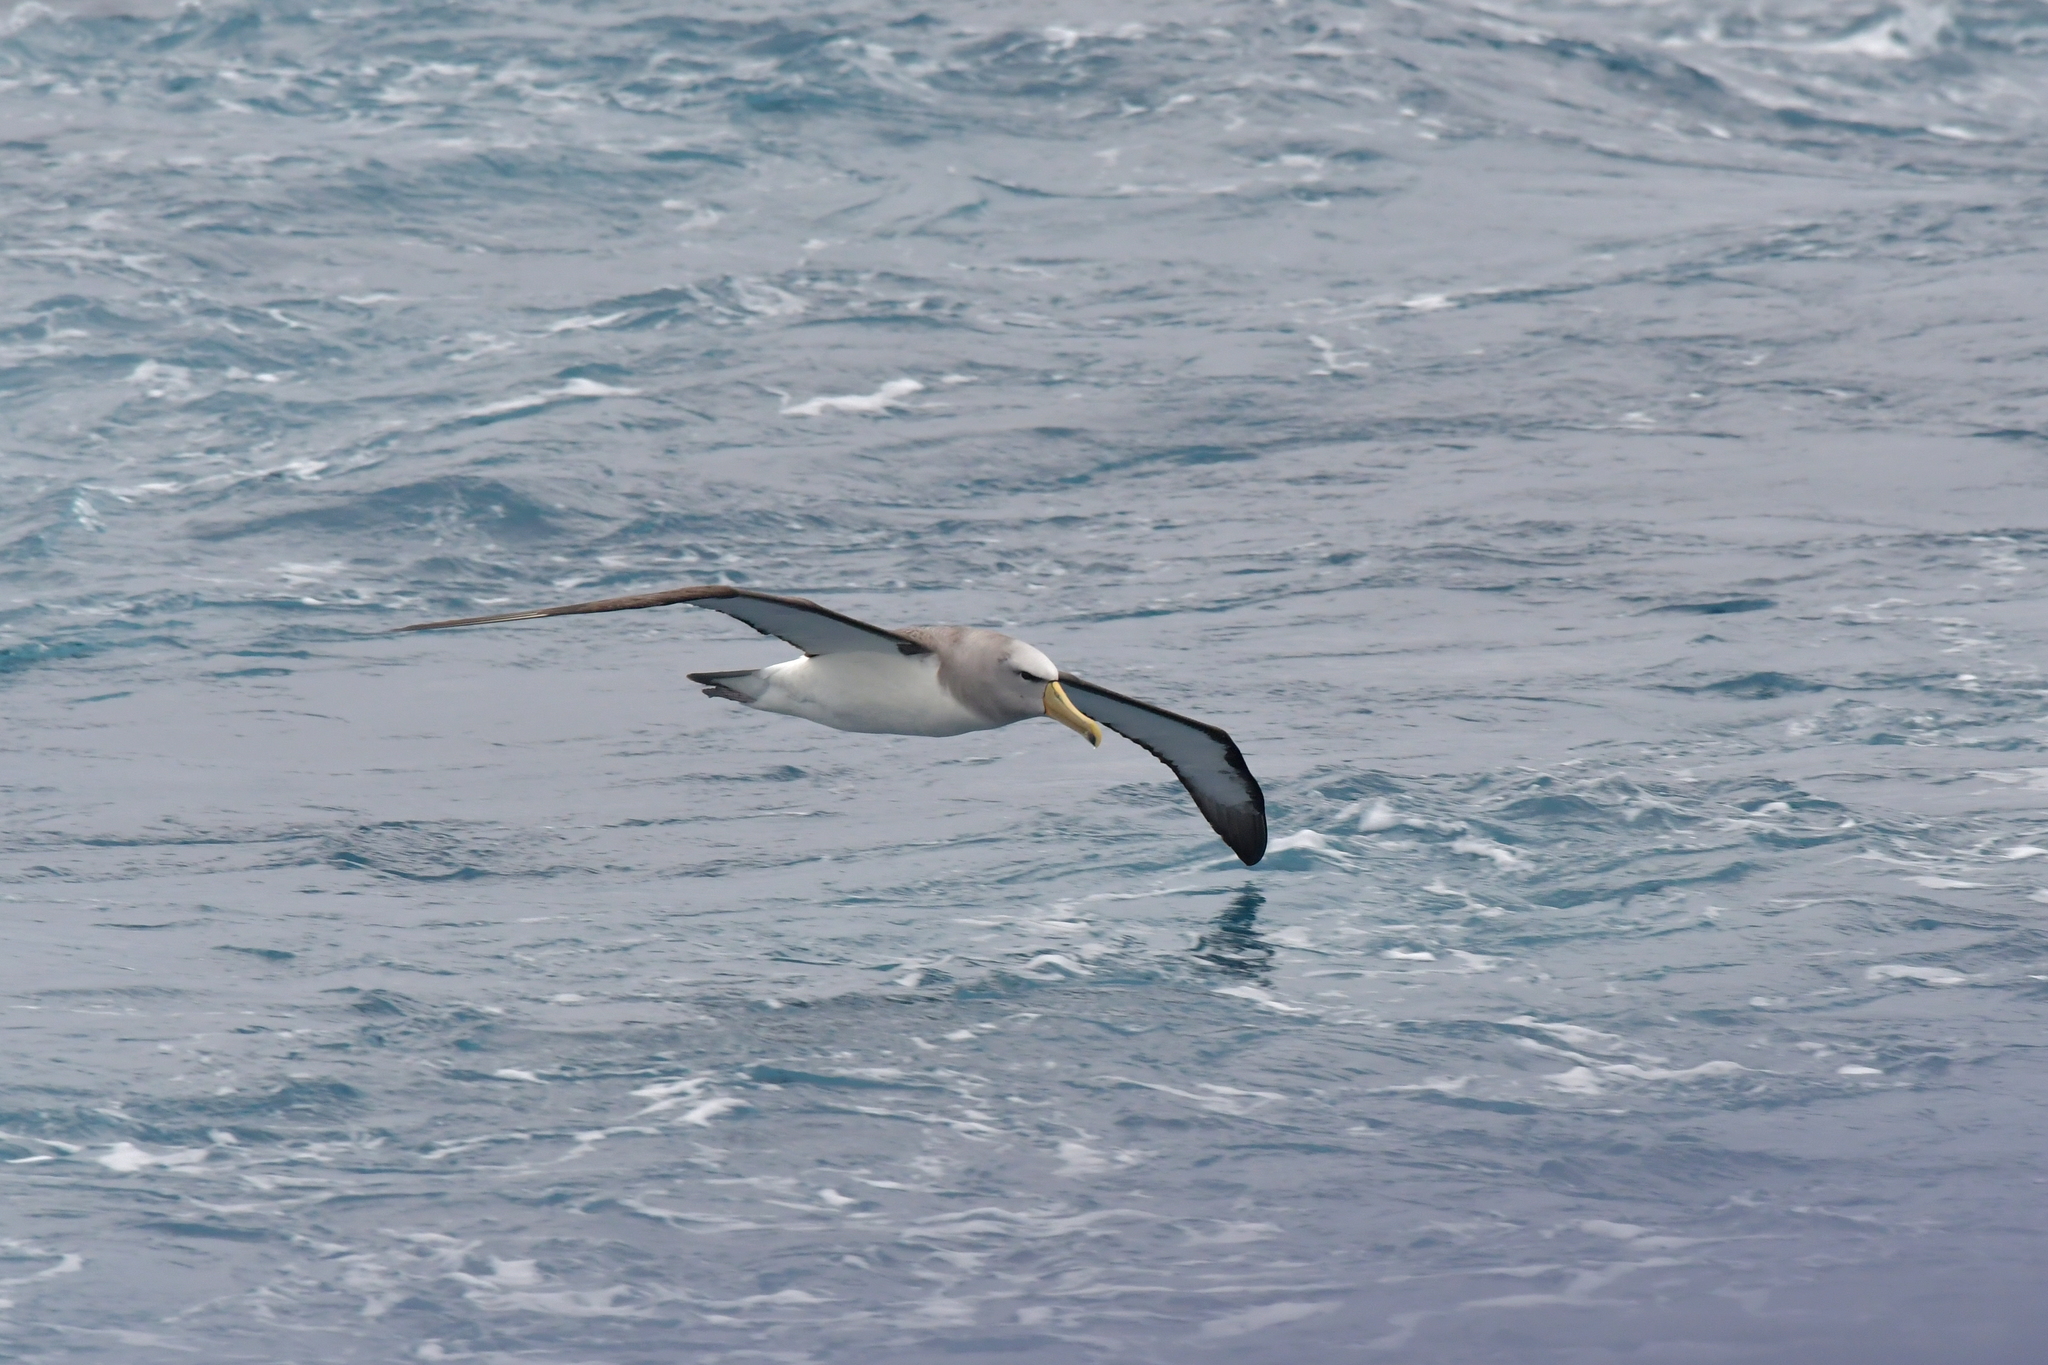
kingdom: Animalia
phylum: Chordata
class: Aves
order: Procellariiformes
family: Diomedeidae
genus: Thalassarche
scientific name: Thalassarche salvini
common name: Salvin's albatross
